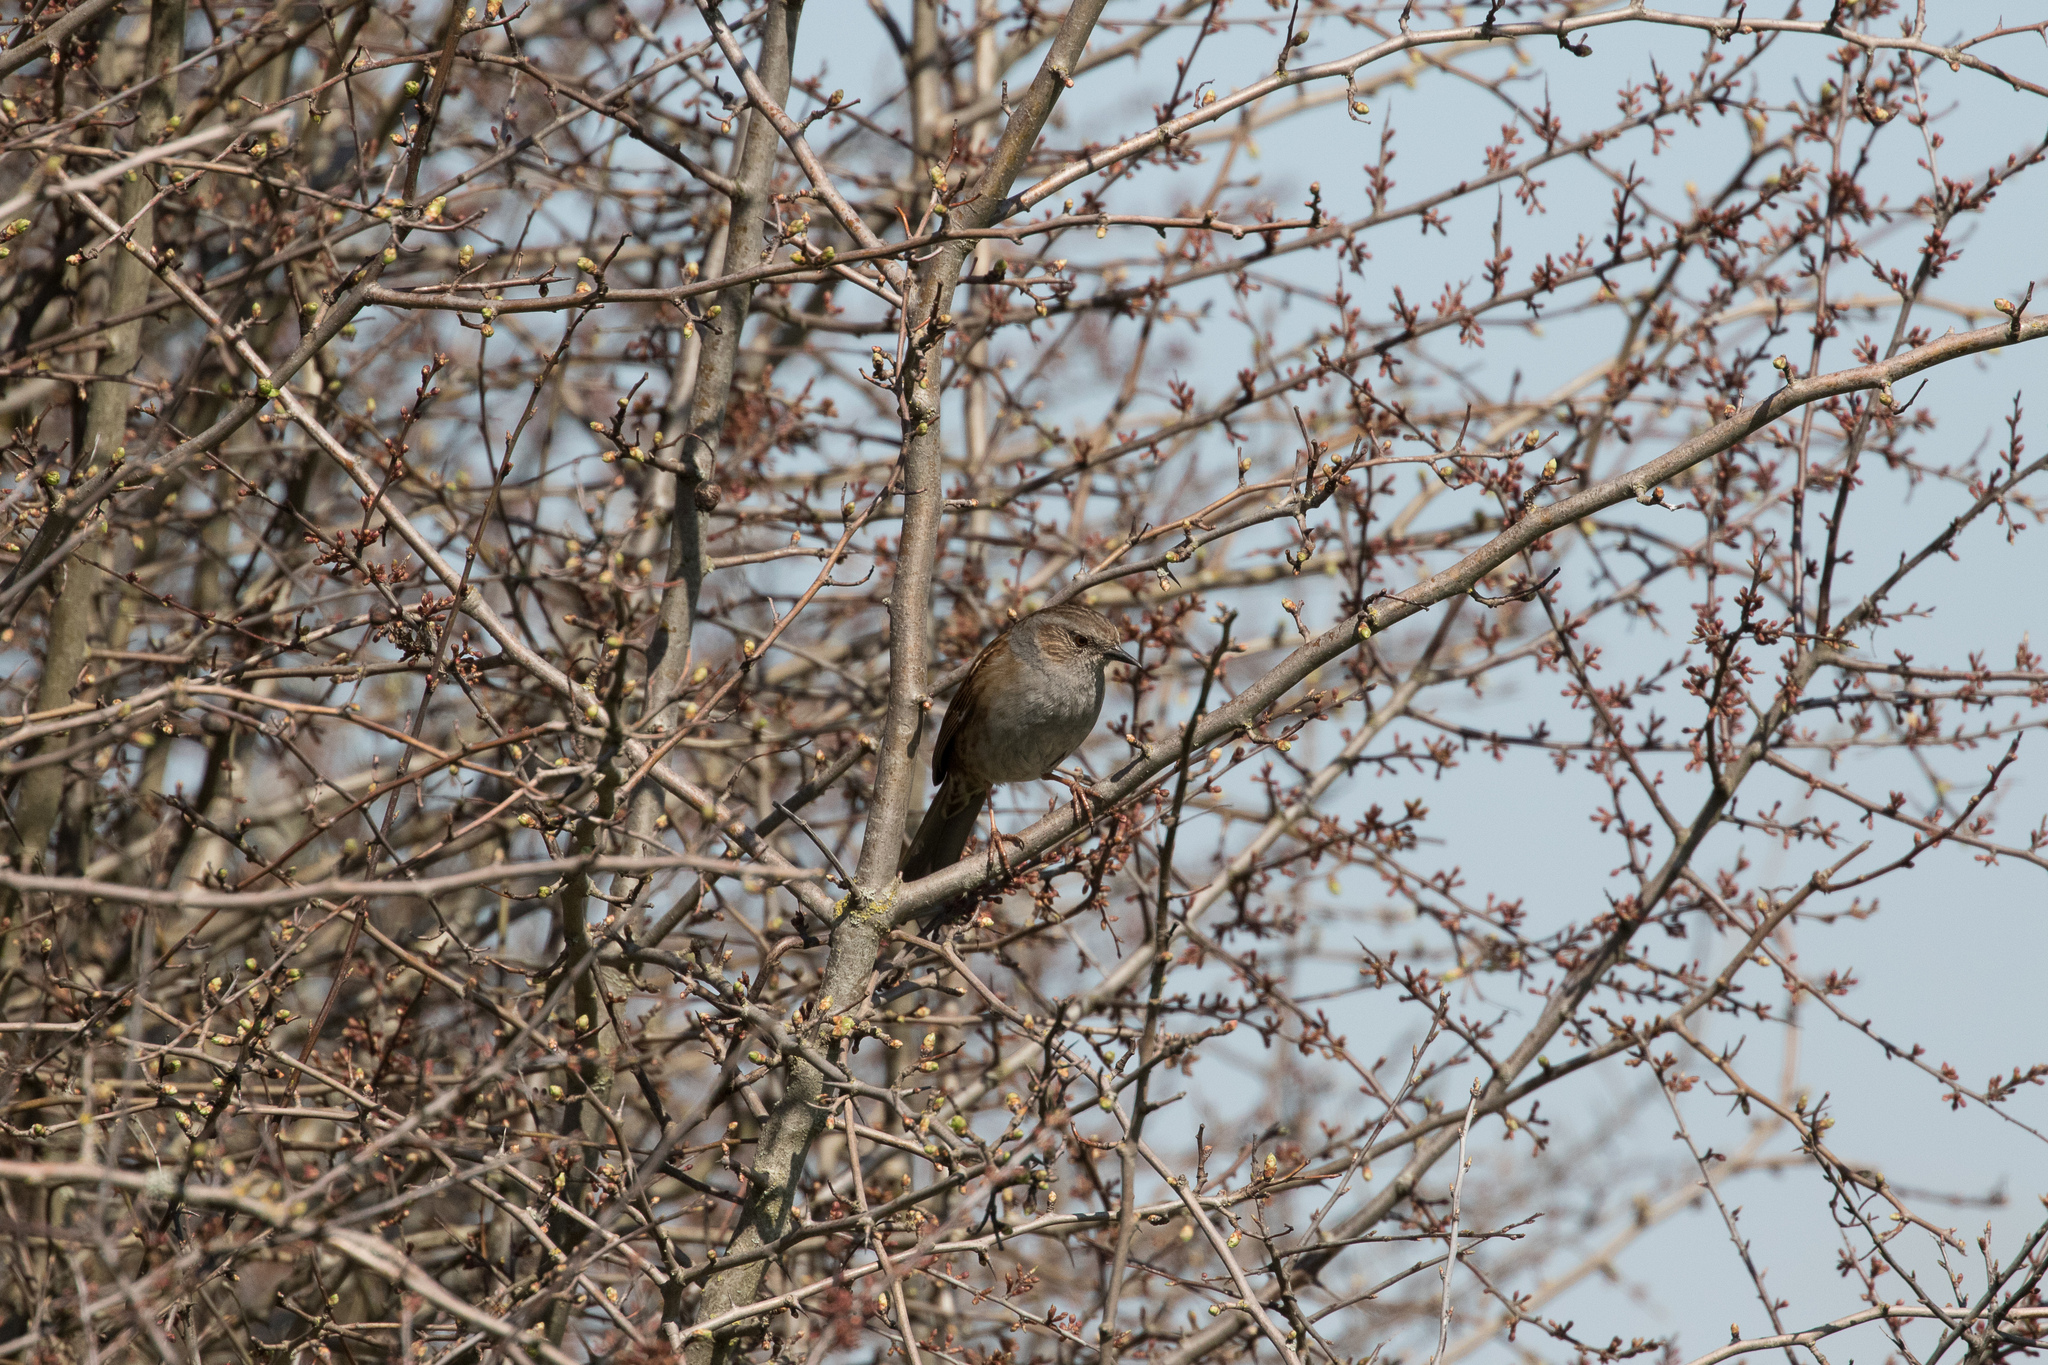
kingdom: Animalia
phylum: Chordata
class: Aves
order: Passeriformes
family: Prunellidae
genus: Prunella
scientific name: Prunella modularis
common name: Dunnock
